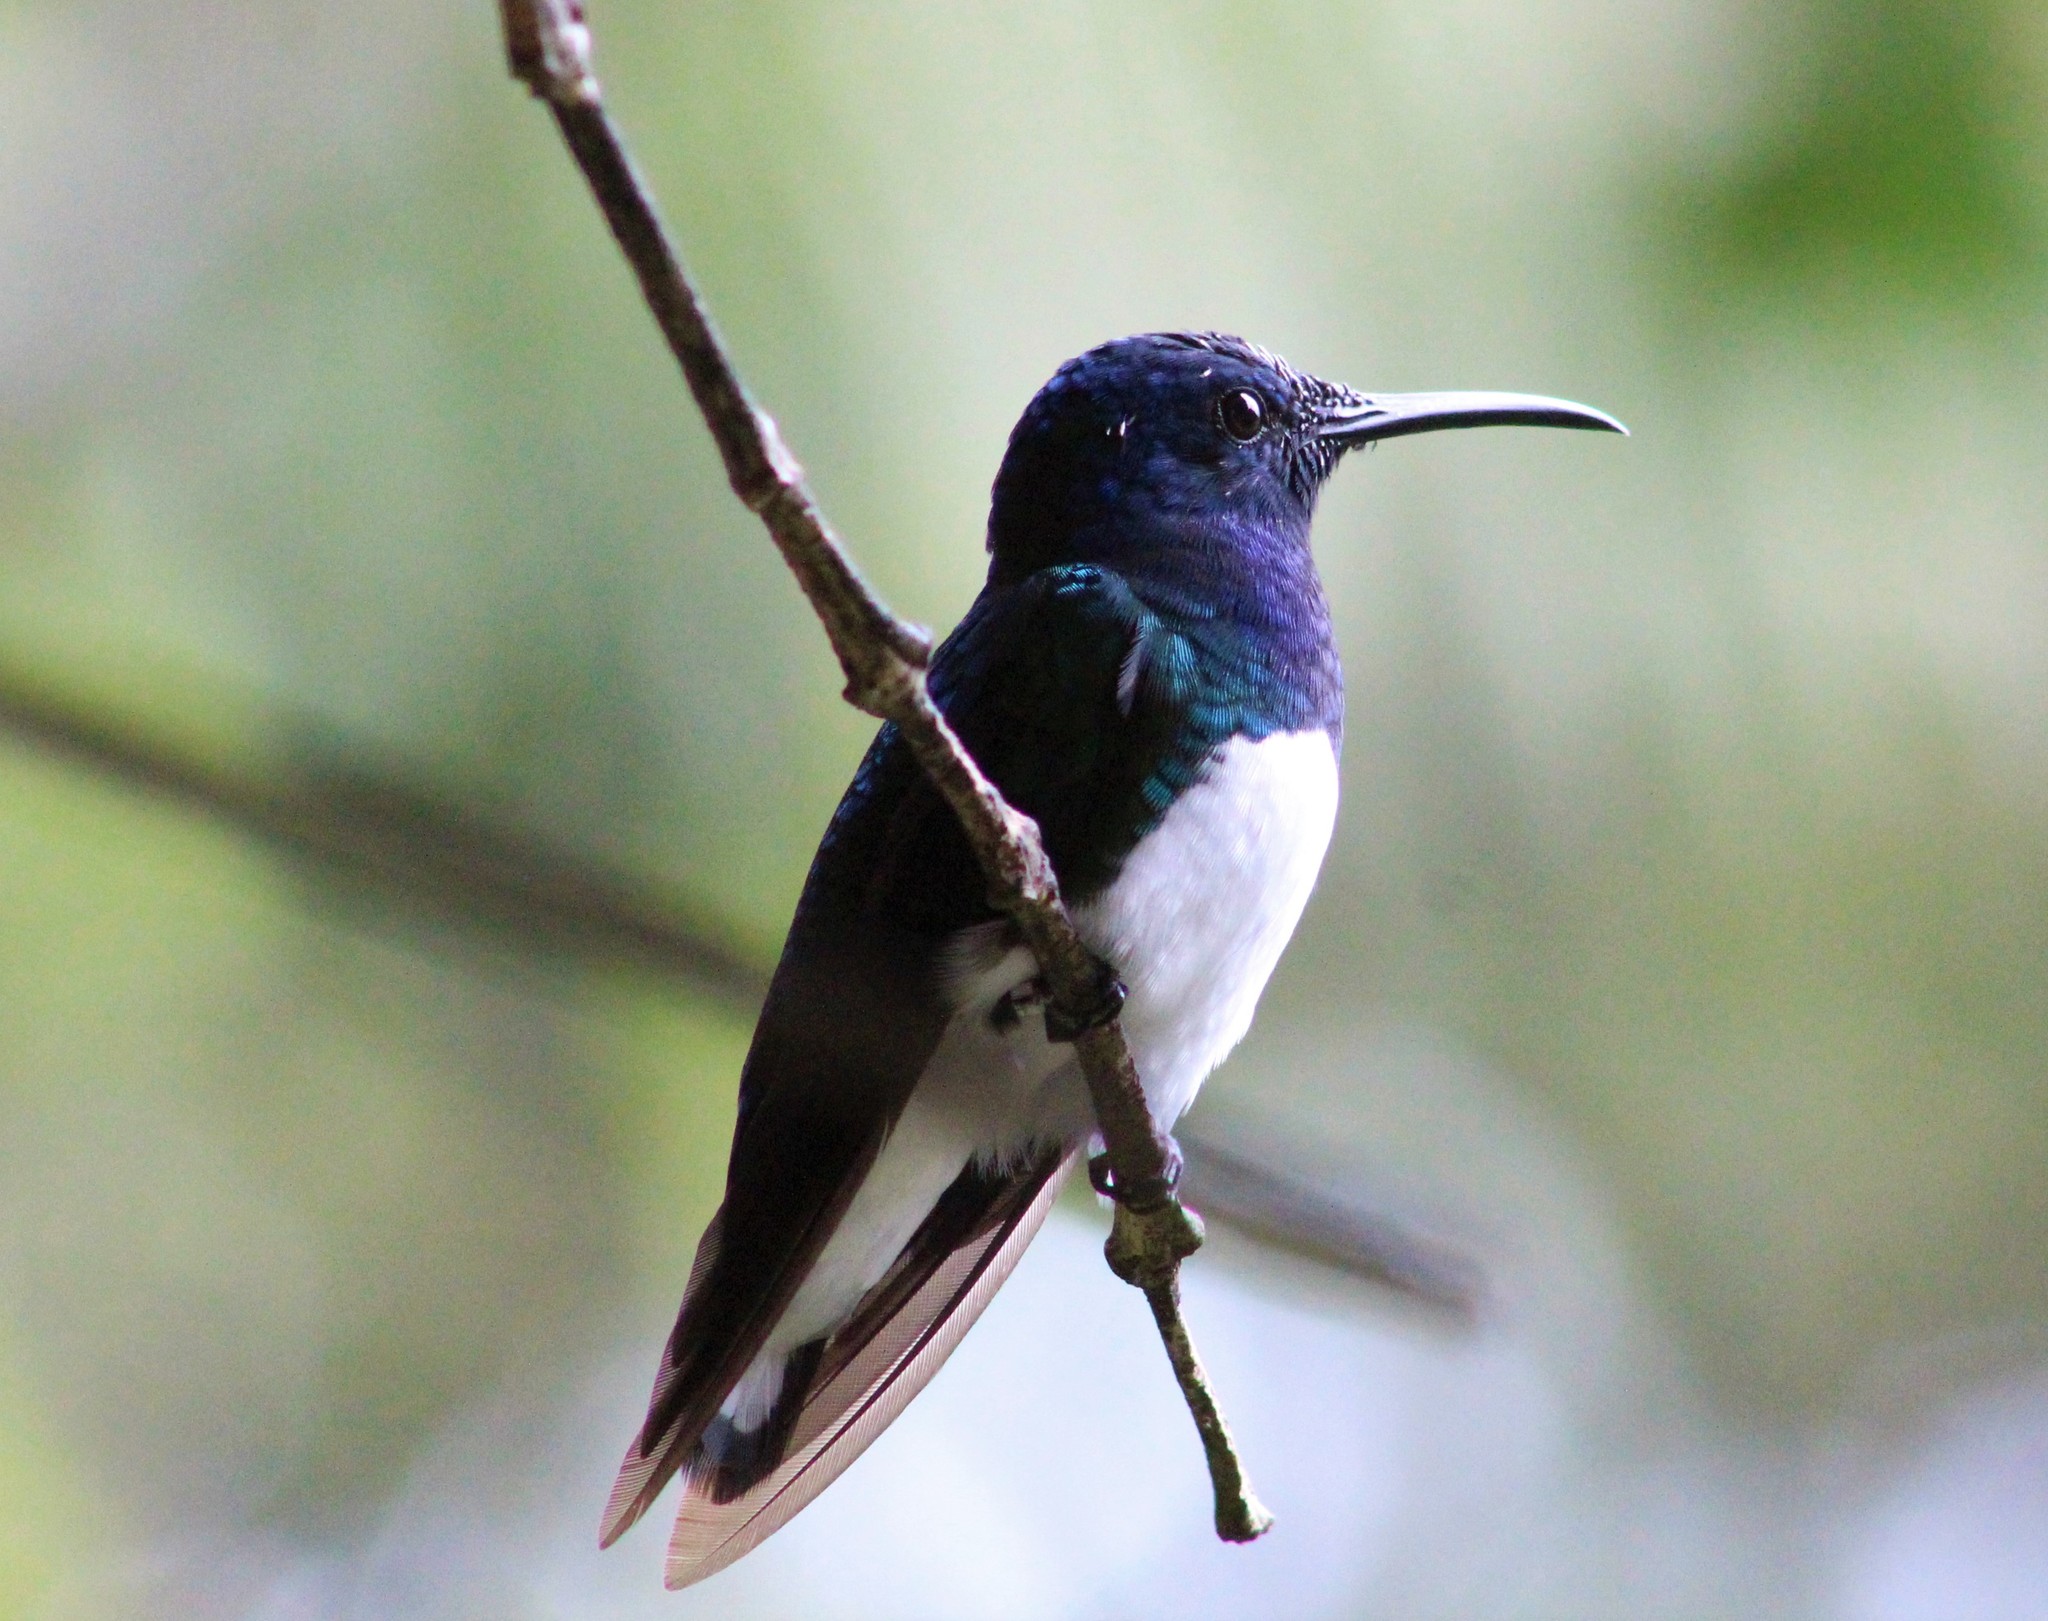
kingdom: Animalia
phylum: Chordata
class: Aves
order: Apodiformes
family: Trochilidae
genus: Florisuga
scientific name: Florisuga mellivora
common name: White-necked jacobin
